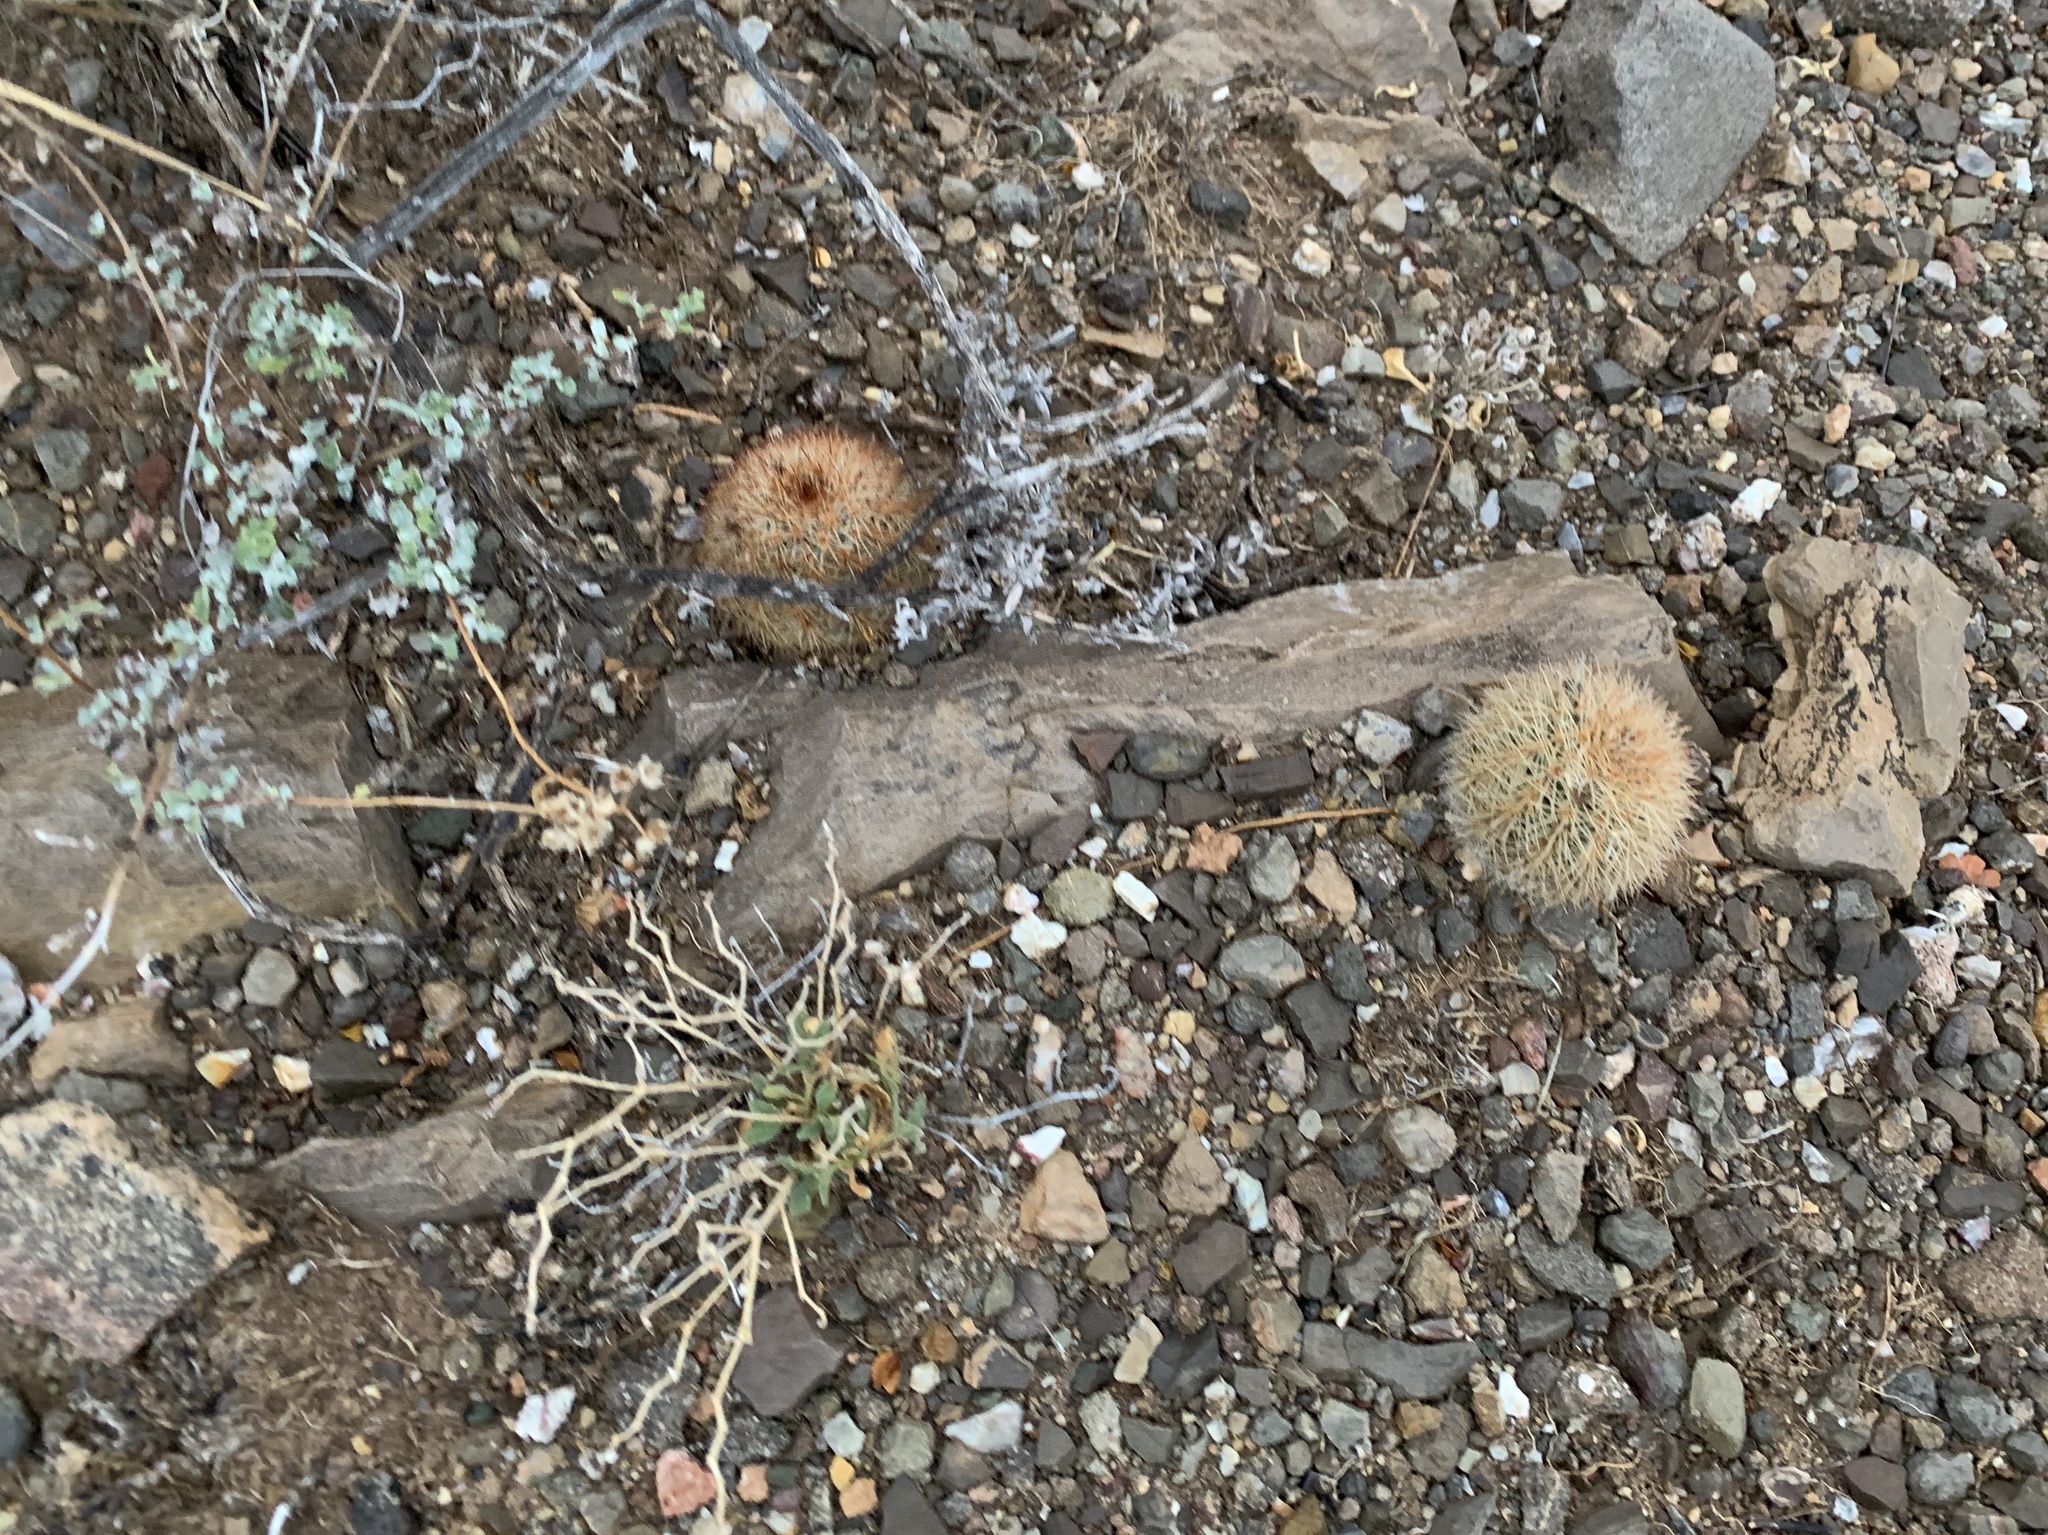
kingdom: Plantae
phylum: Tracheophyta
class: Magnoliopsida
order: Caryophyllales
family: Cactaceae
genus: Echinocereus
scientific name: Echinocereus dasyacanthus
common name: Spiny hedgehog cactus
